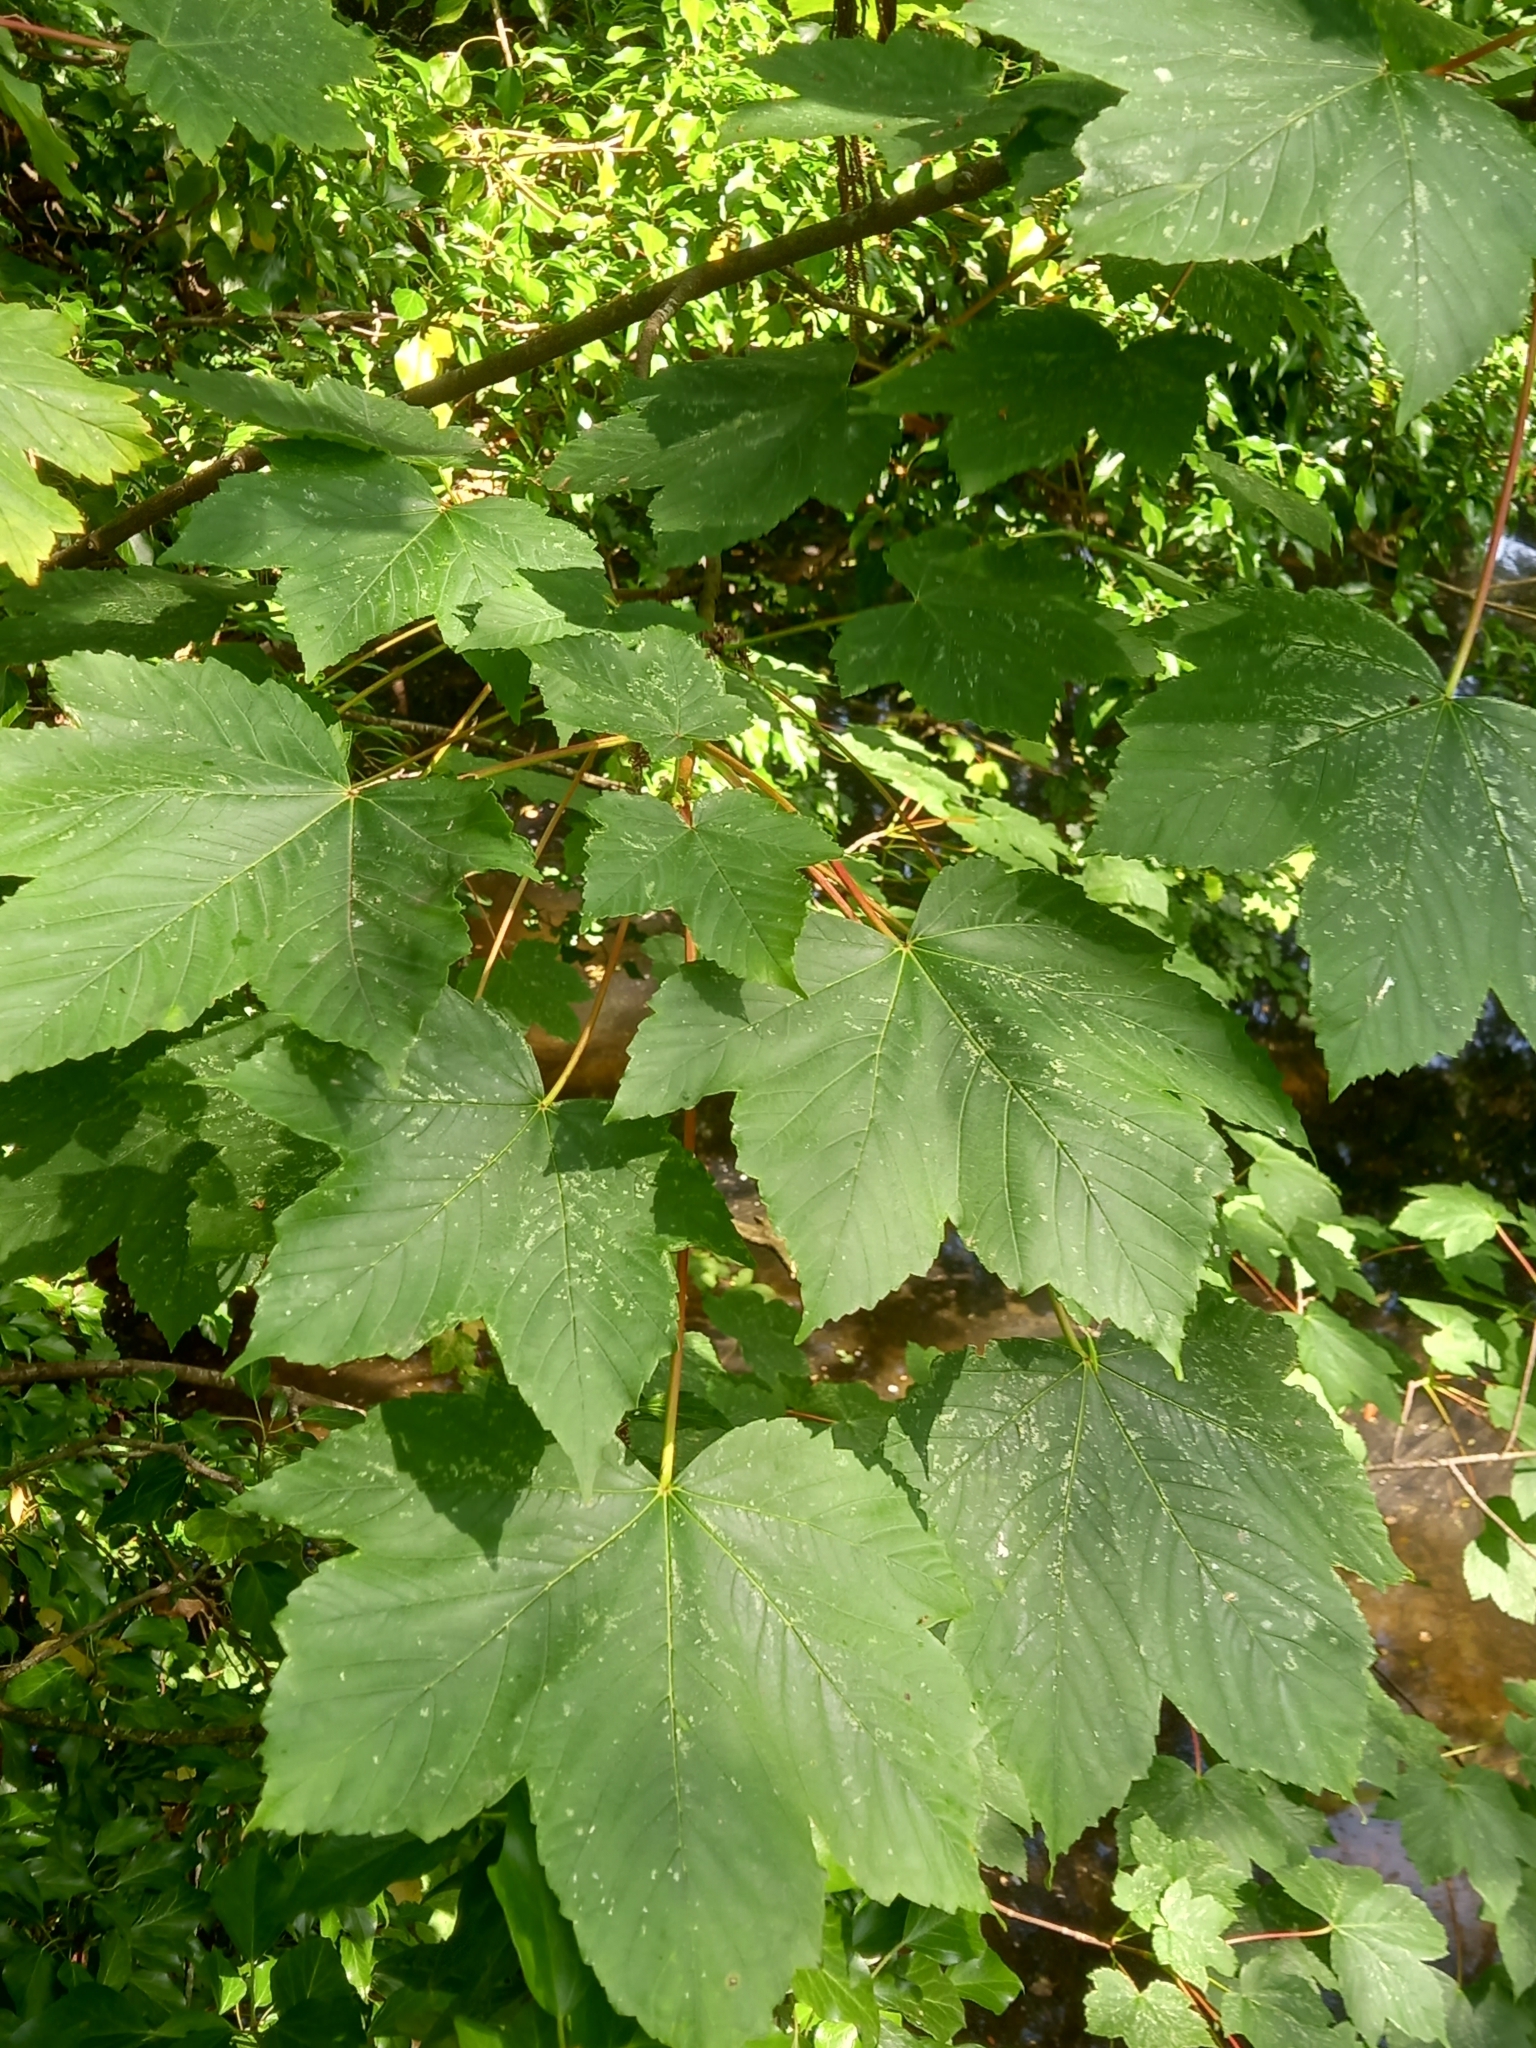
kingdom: Plantae
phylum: Tracheophyta
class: Magnoliopsida
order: Sapindales
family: Sapindaceae
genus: Acer
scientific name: Acer pseudoplatanus
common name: Sycamore
